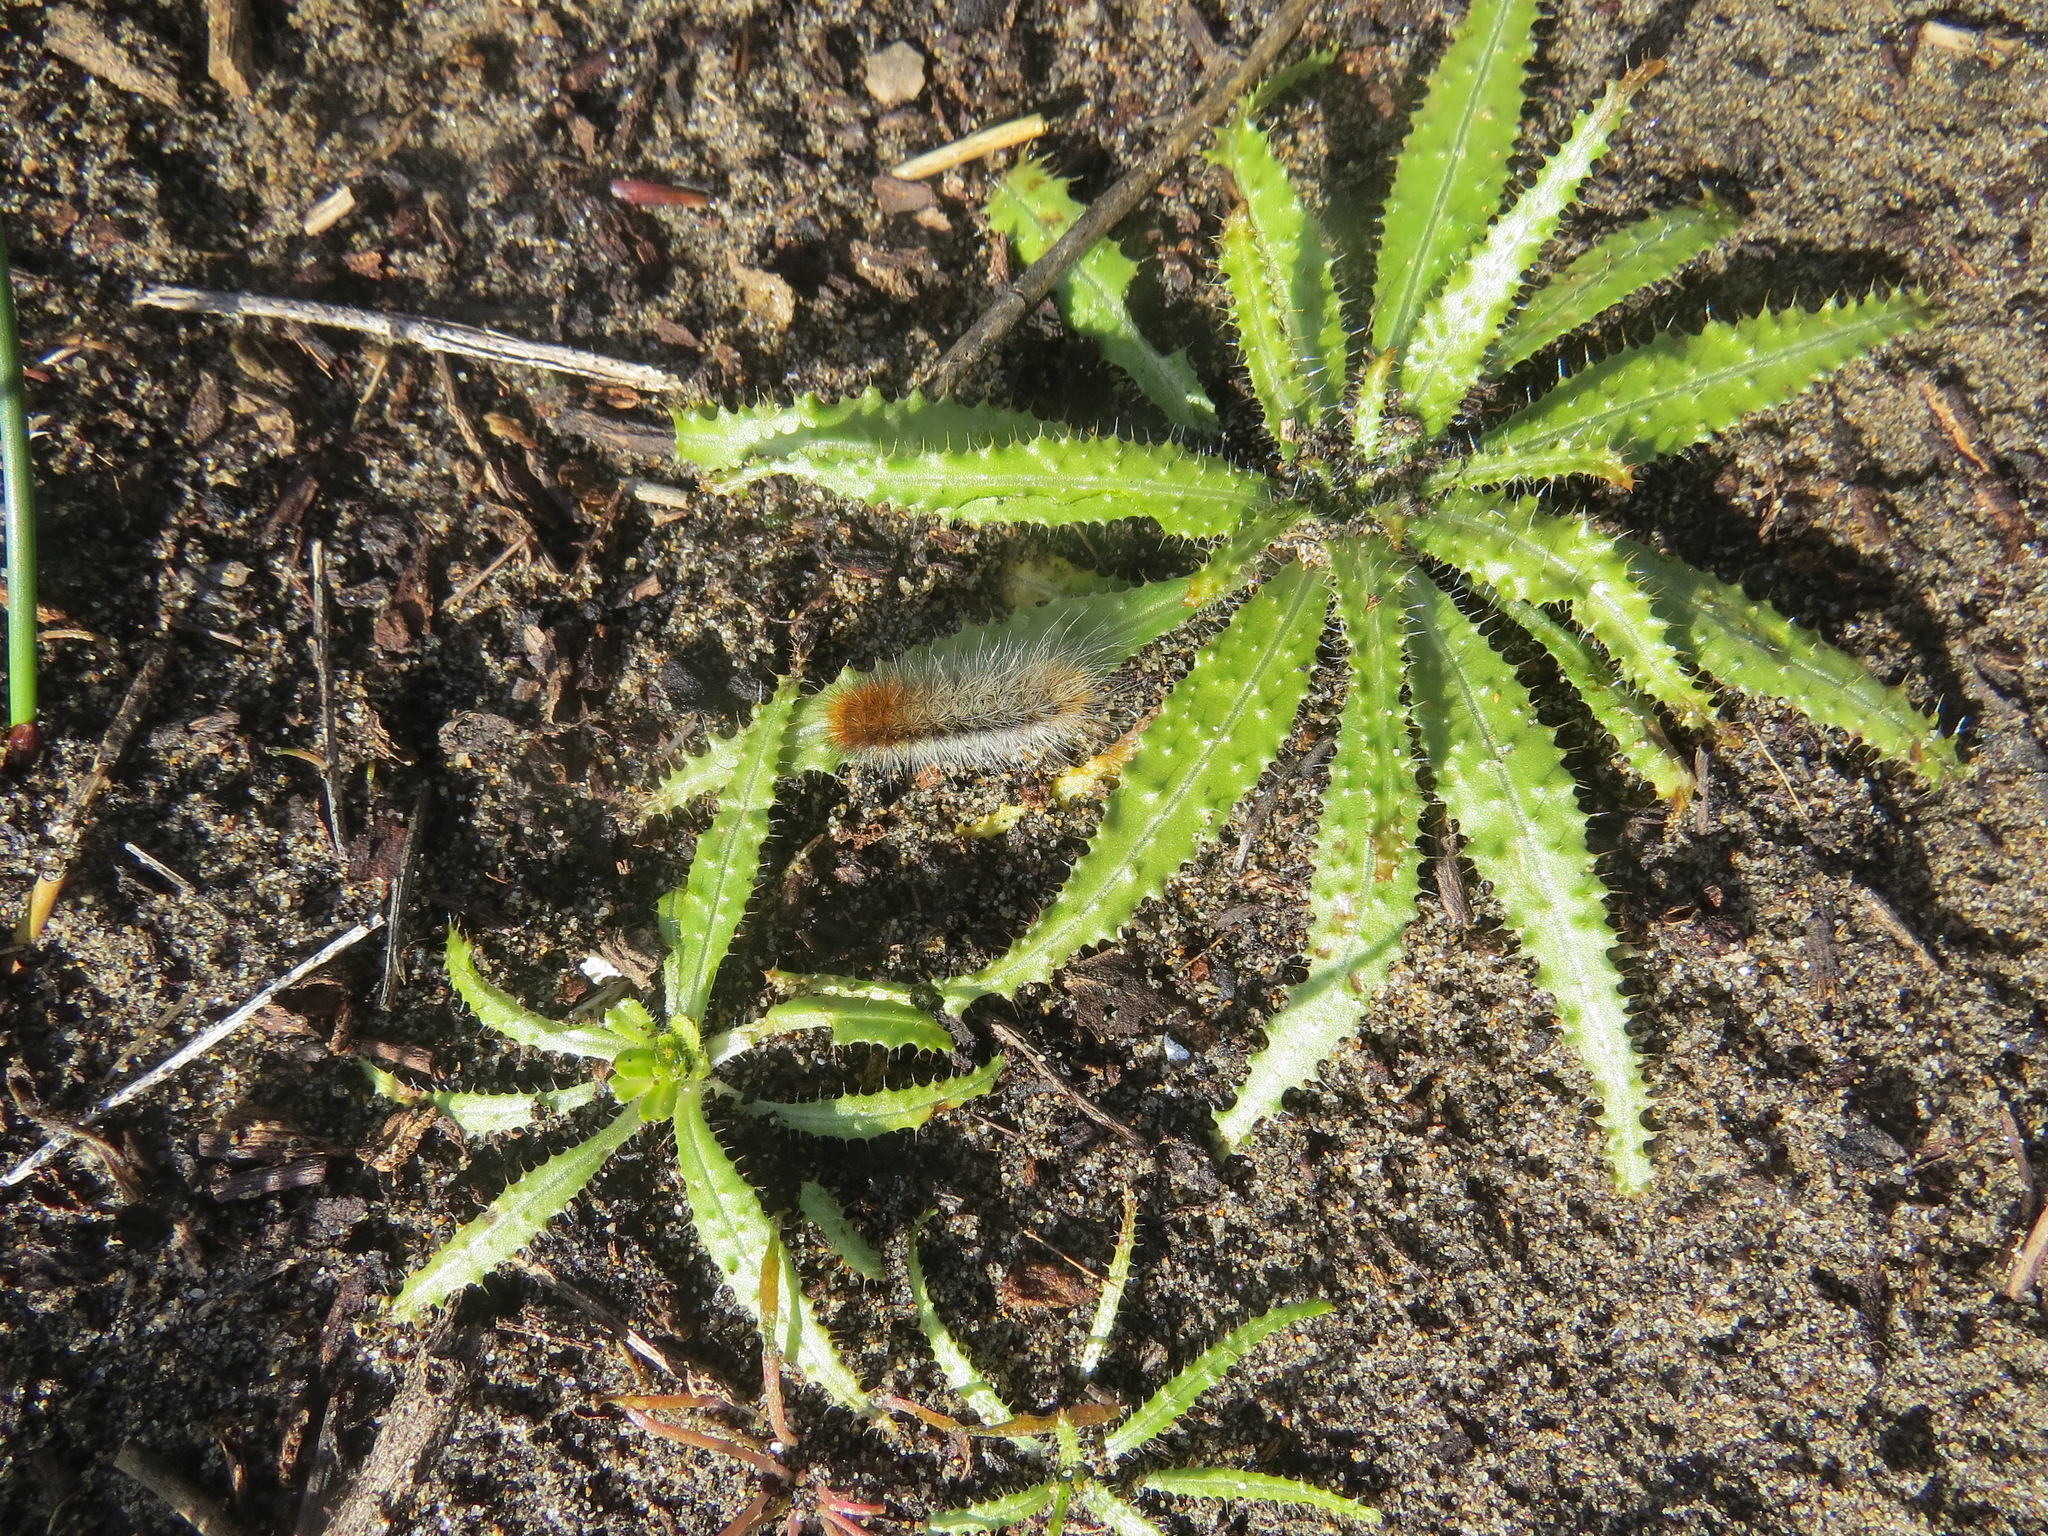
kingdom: Plantae
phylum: Tracheophyta
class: Magnoliopsida
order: Boraginales
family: Boraginaceae
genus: Amsinckia
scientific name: Amsinckia spectabilis
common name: Seaside fiddleneck
